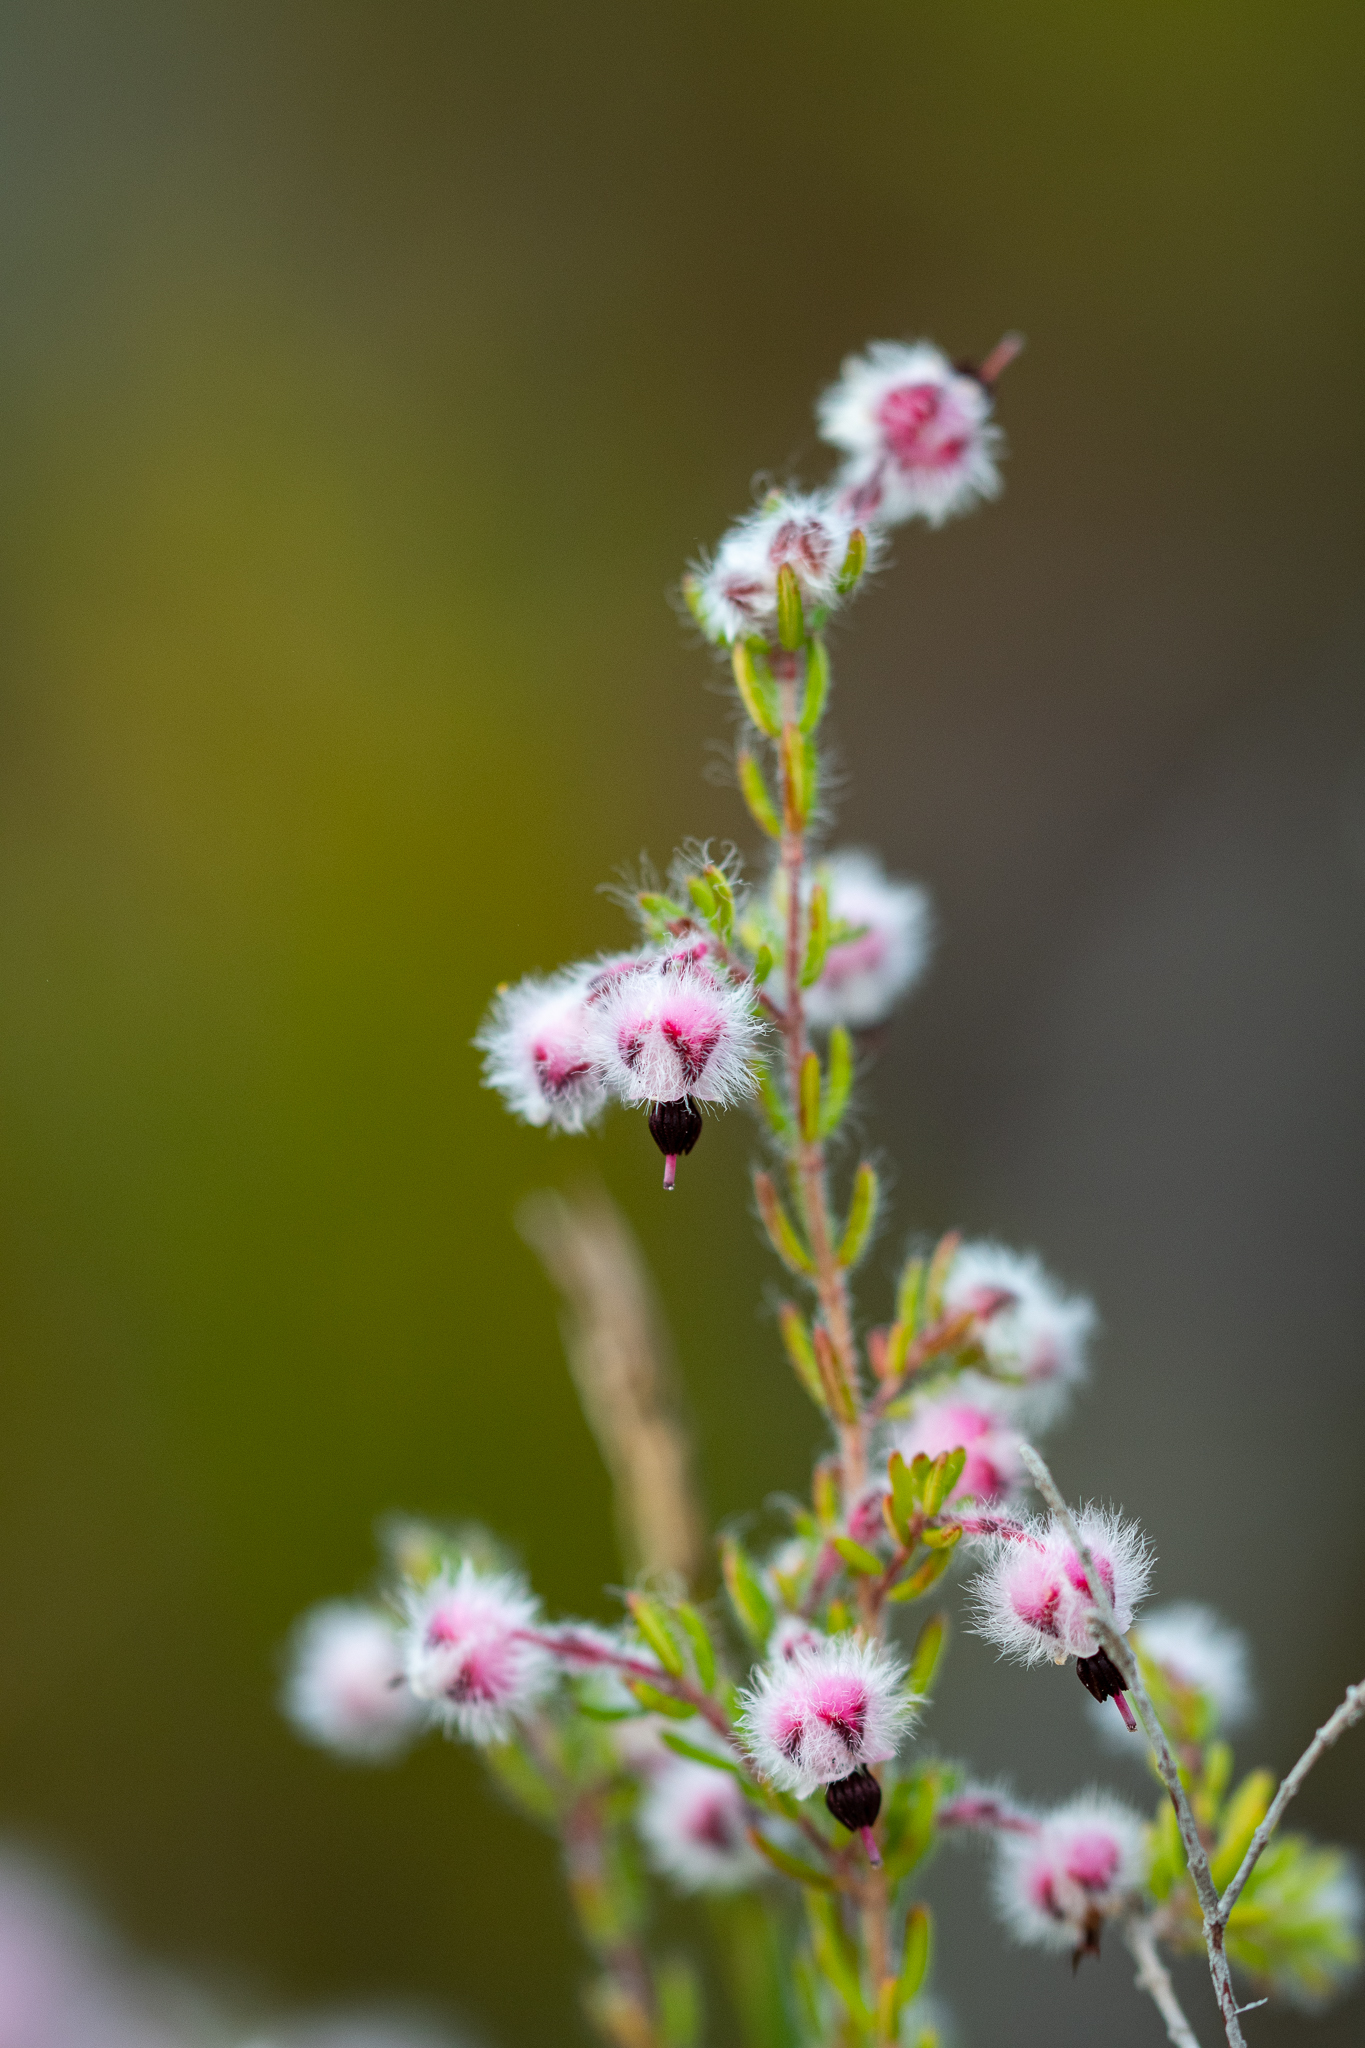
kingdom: Plantae
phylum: Tracheophyta
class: Magnoliopsida
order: Ericales
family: Ericaceae
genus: Erica
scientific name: Erica bruniades
